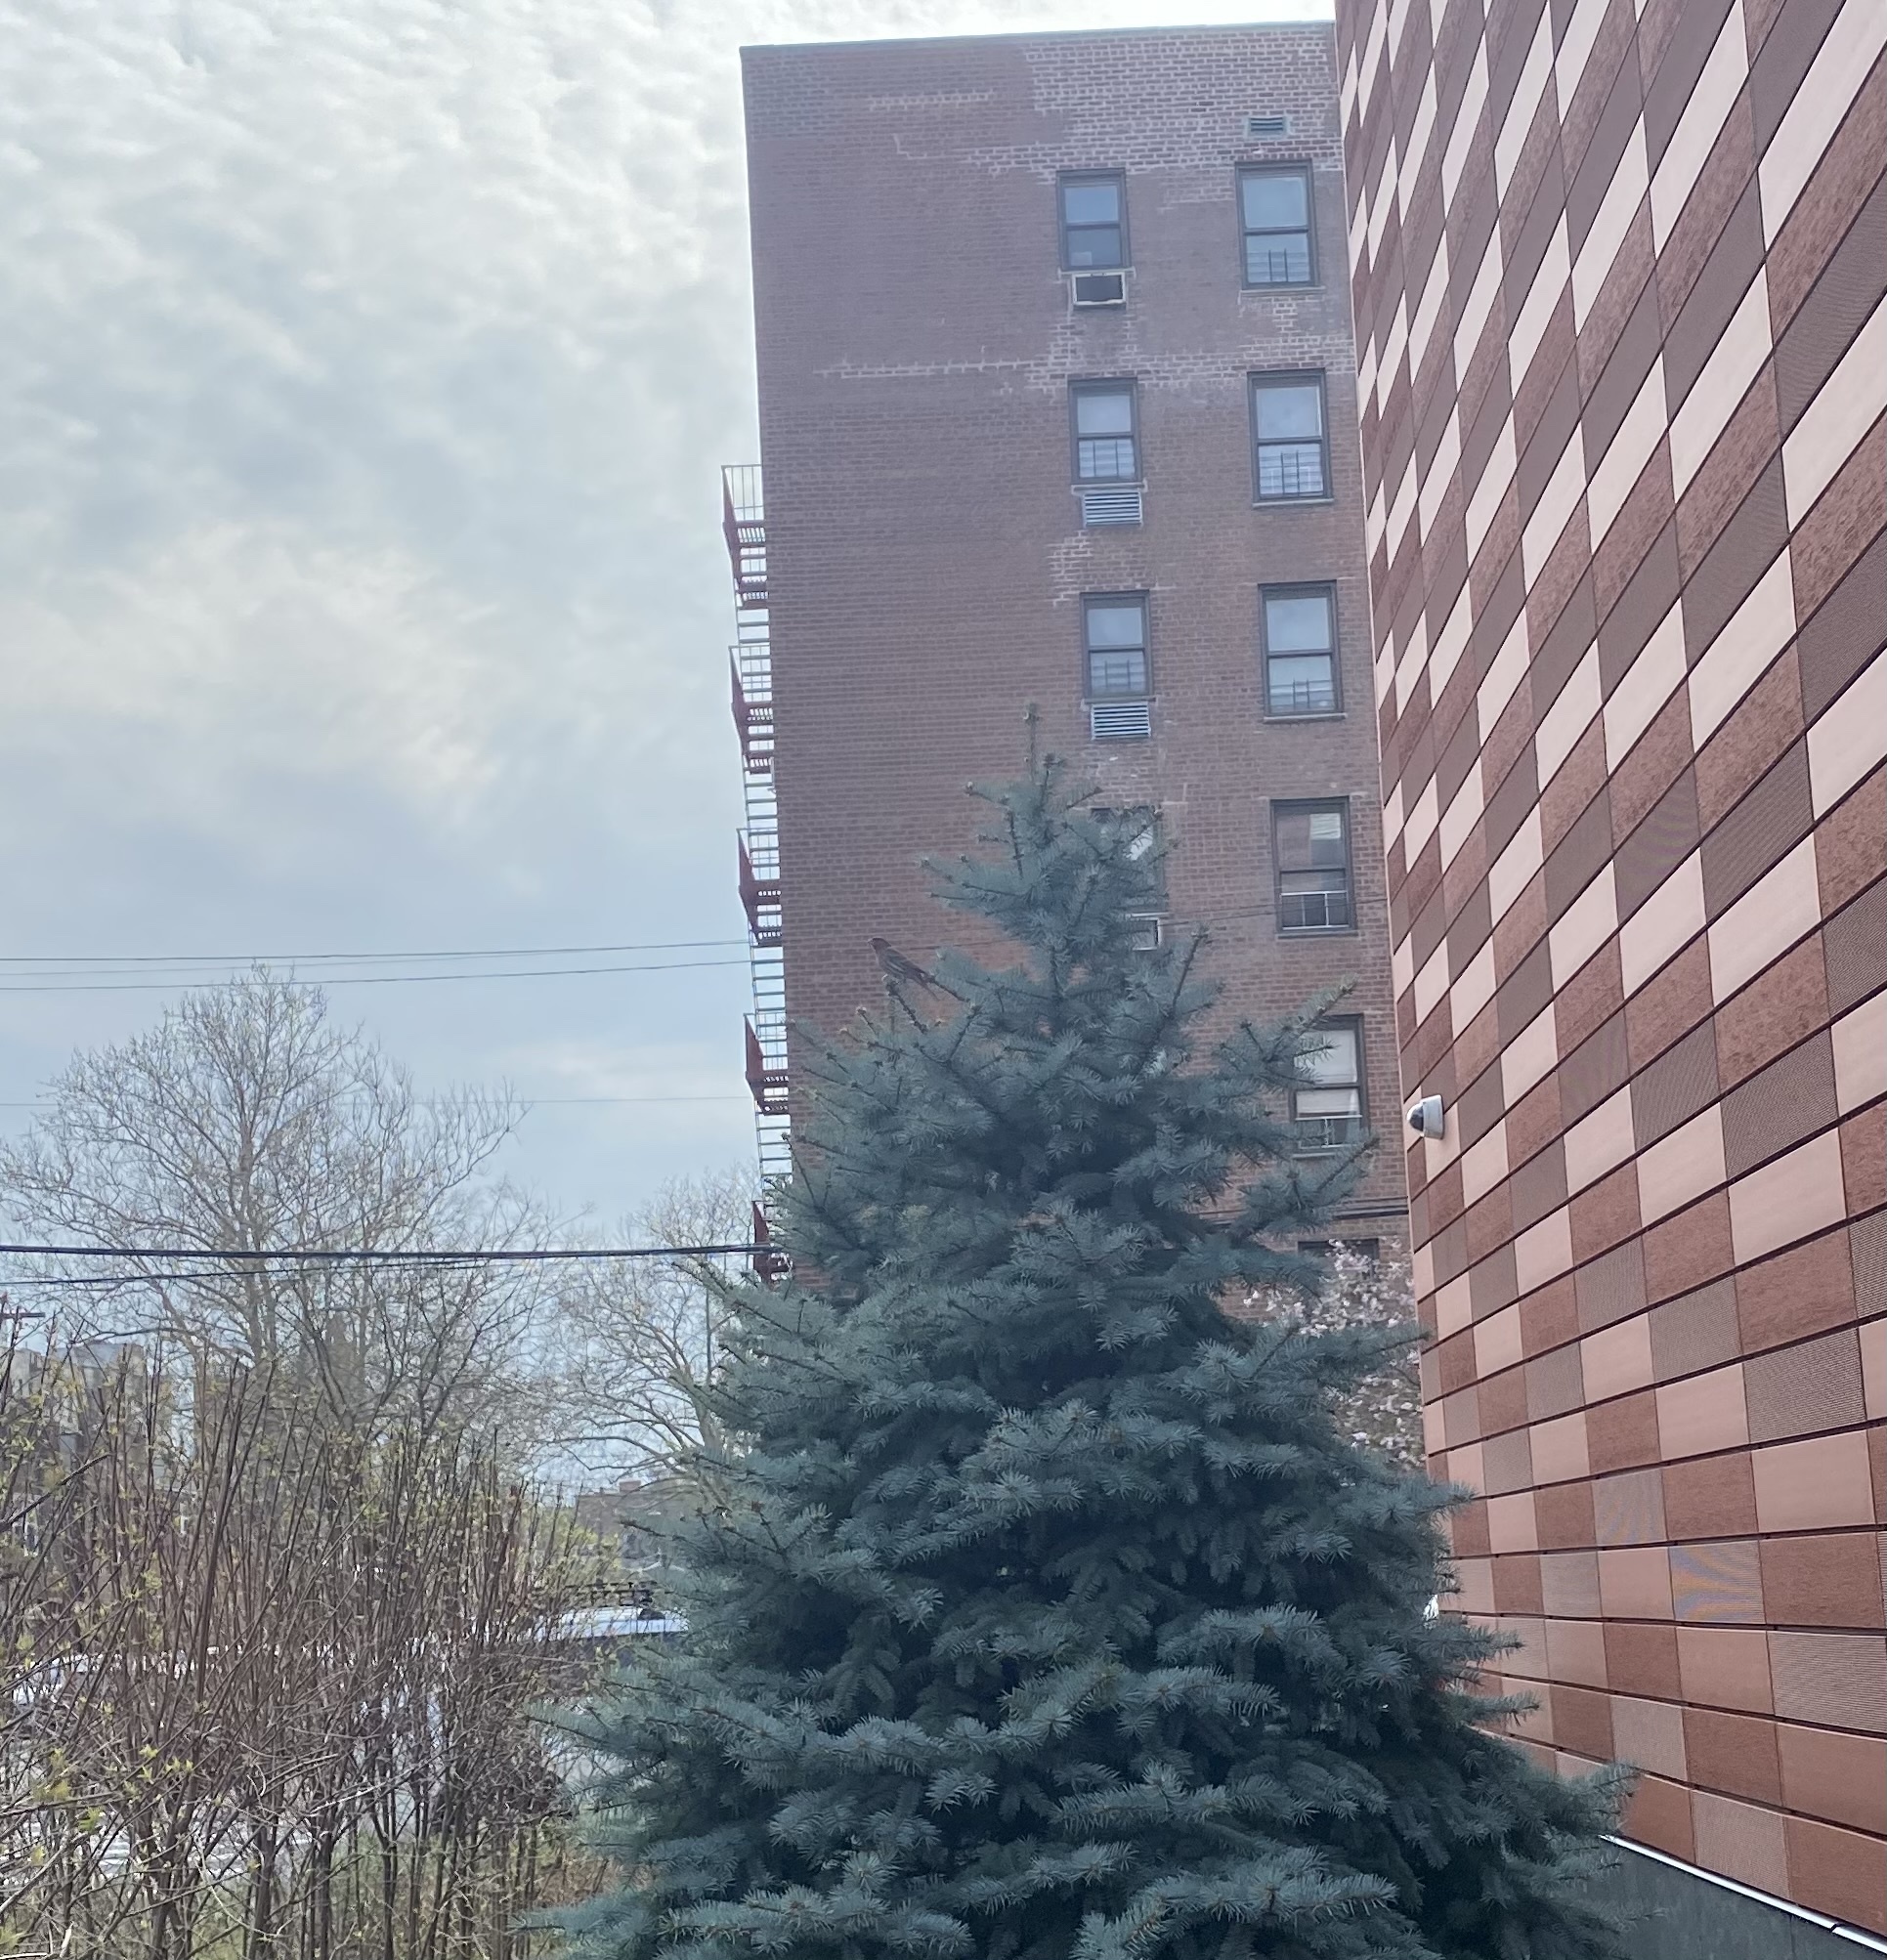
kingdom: Animalia
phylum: Chordata
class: Aves
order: Passeriformes
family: Fringillidae
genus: Haemorhous
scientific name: Haemorhous mexicanus
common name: House finch
